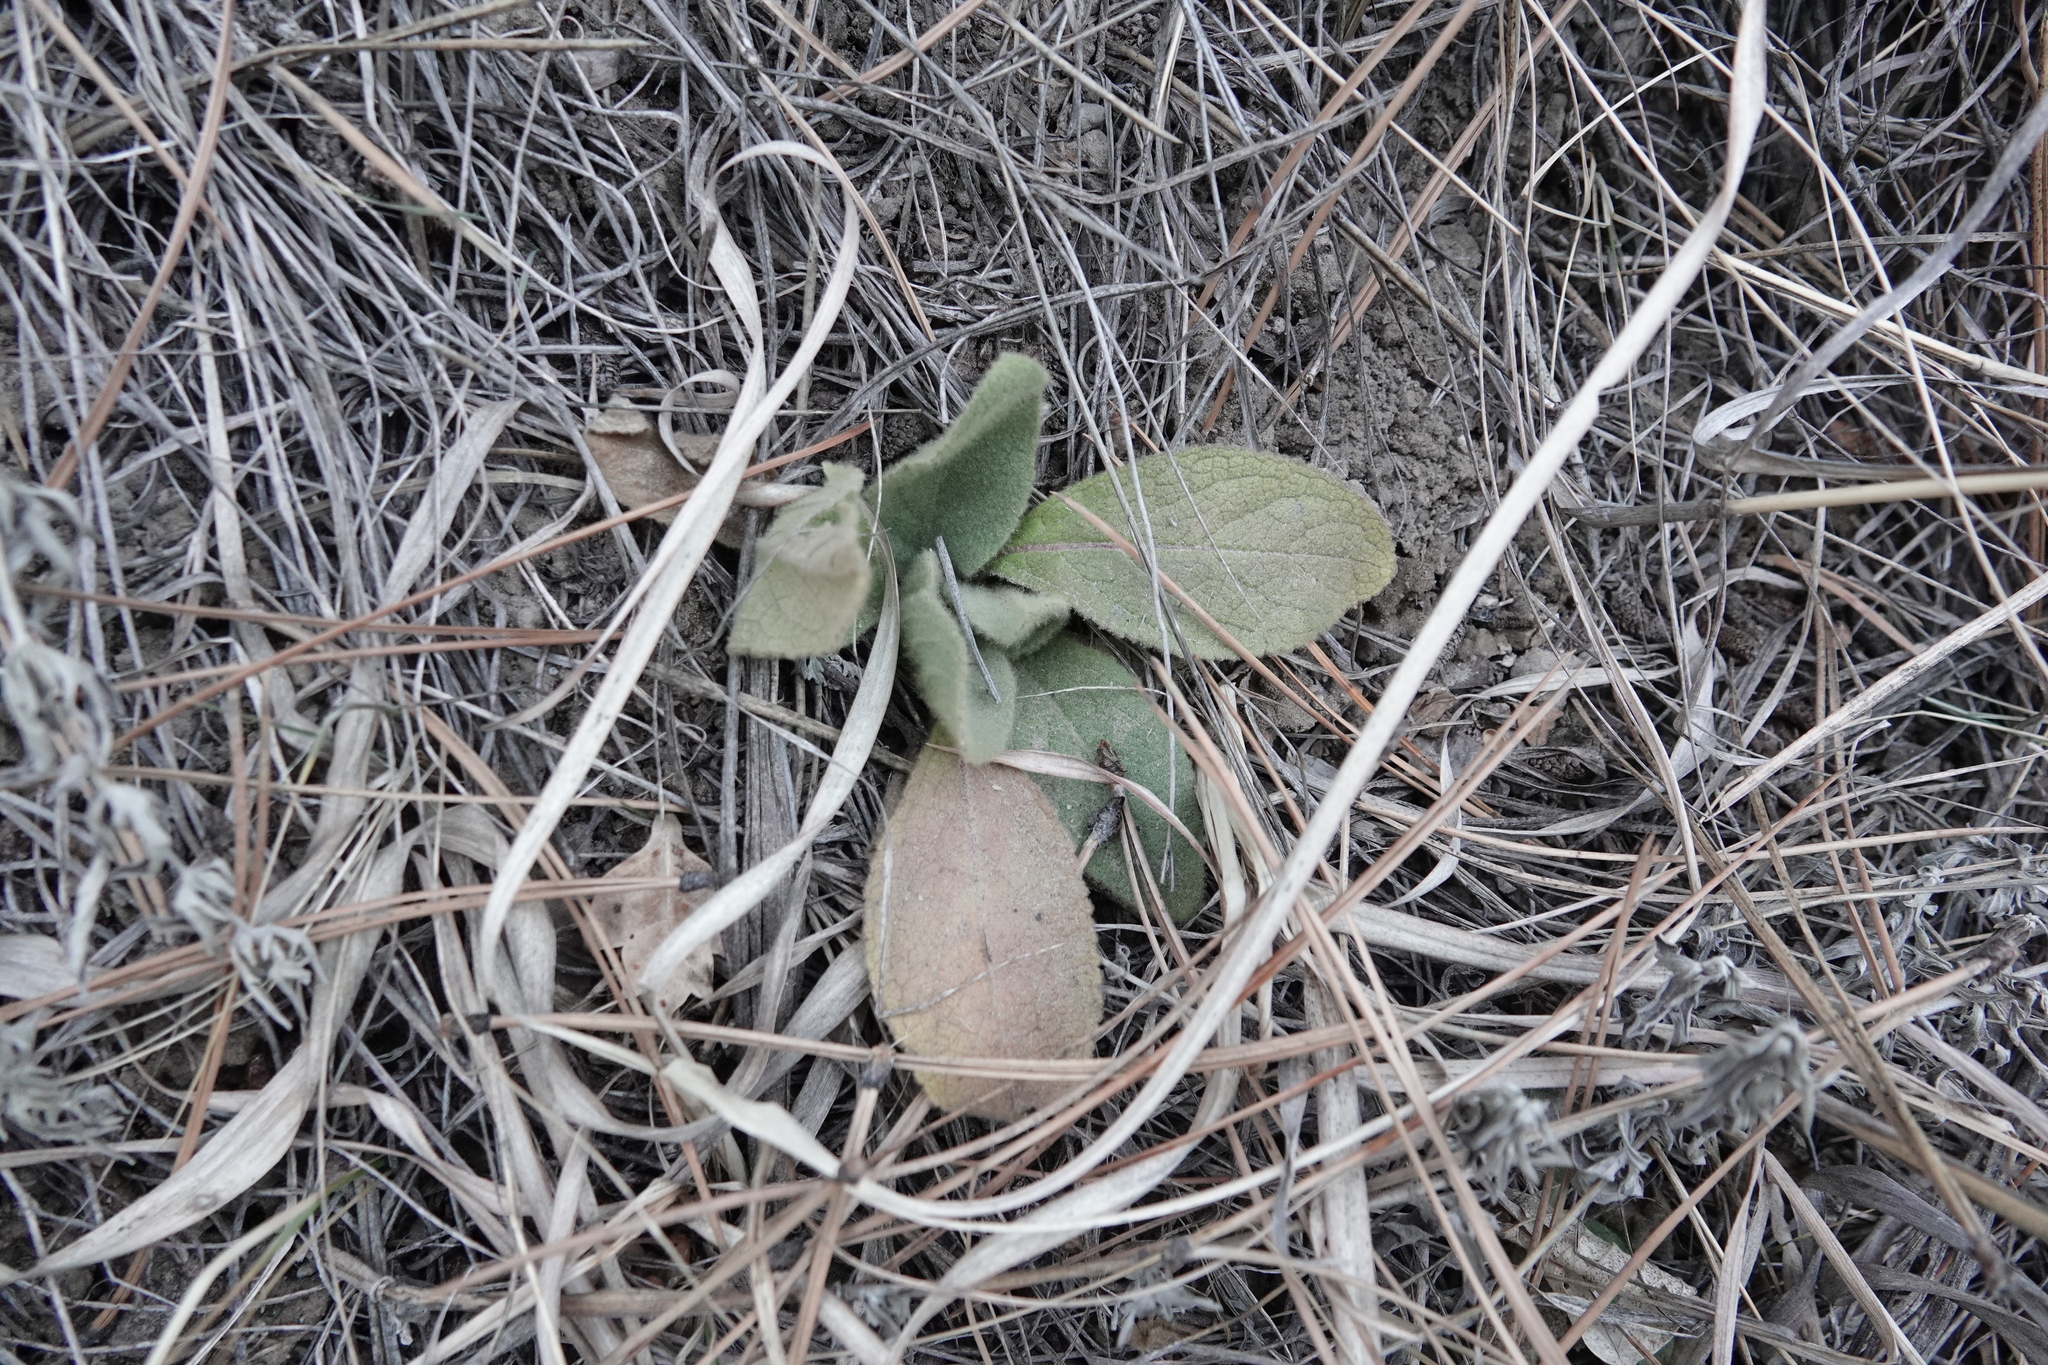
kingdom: Plantae
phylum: Tracheophyta
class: Magnoliopsida
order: Lamiales
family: Scrophulariaceae
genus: Verbascum
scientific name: Verbascum thapsus
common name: Common mullein
